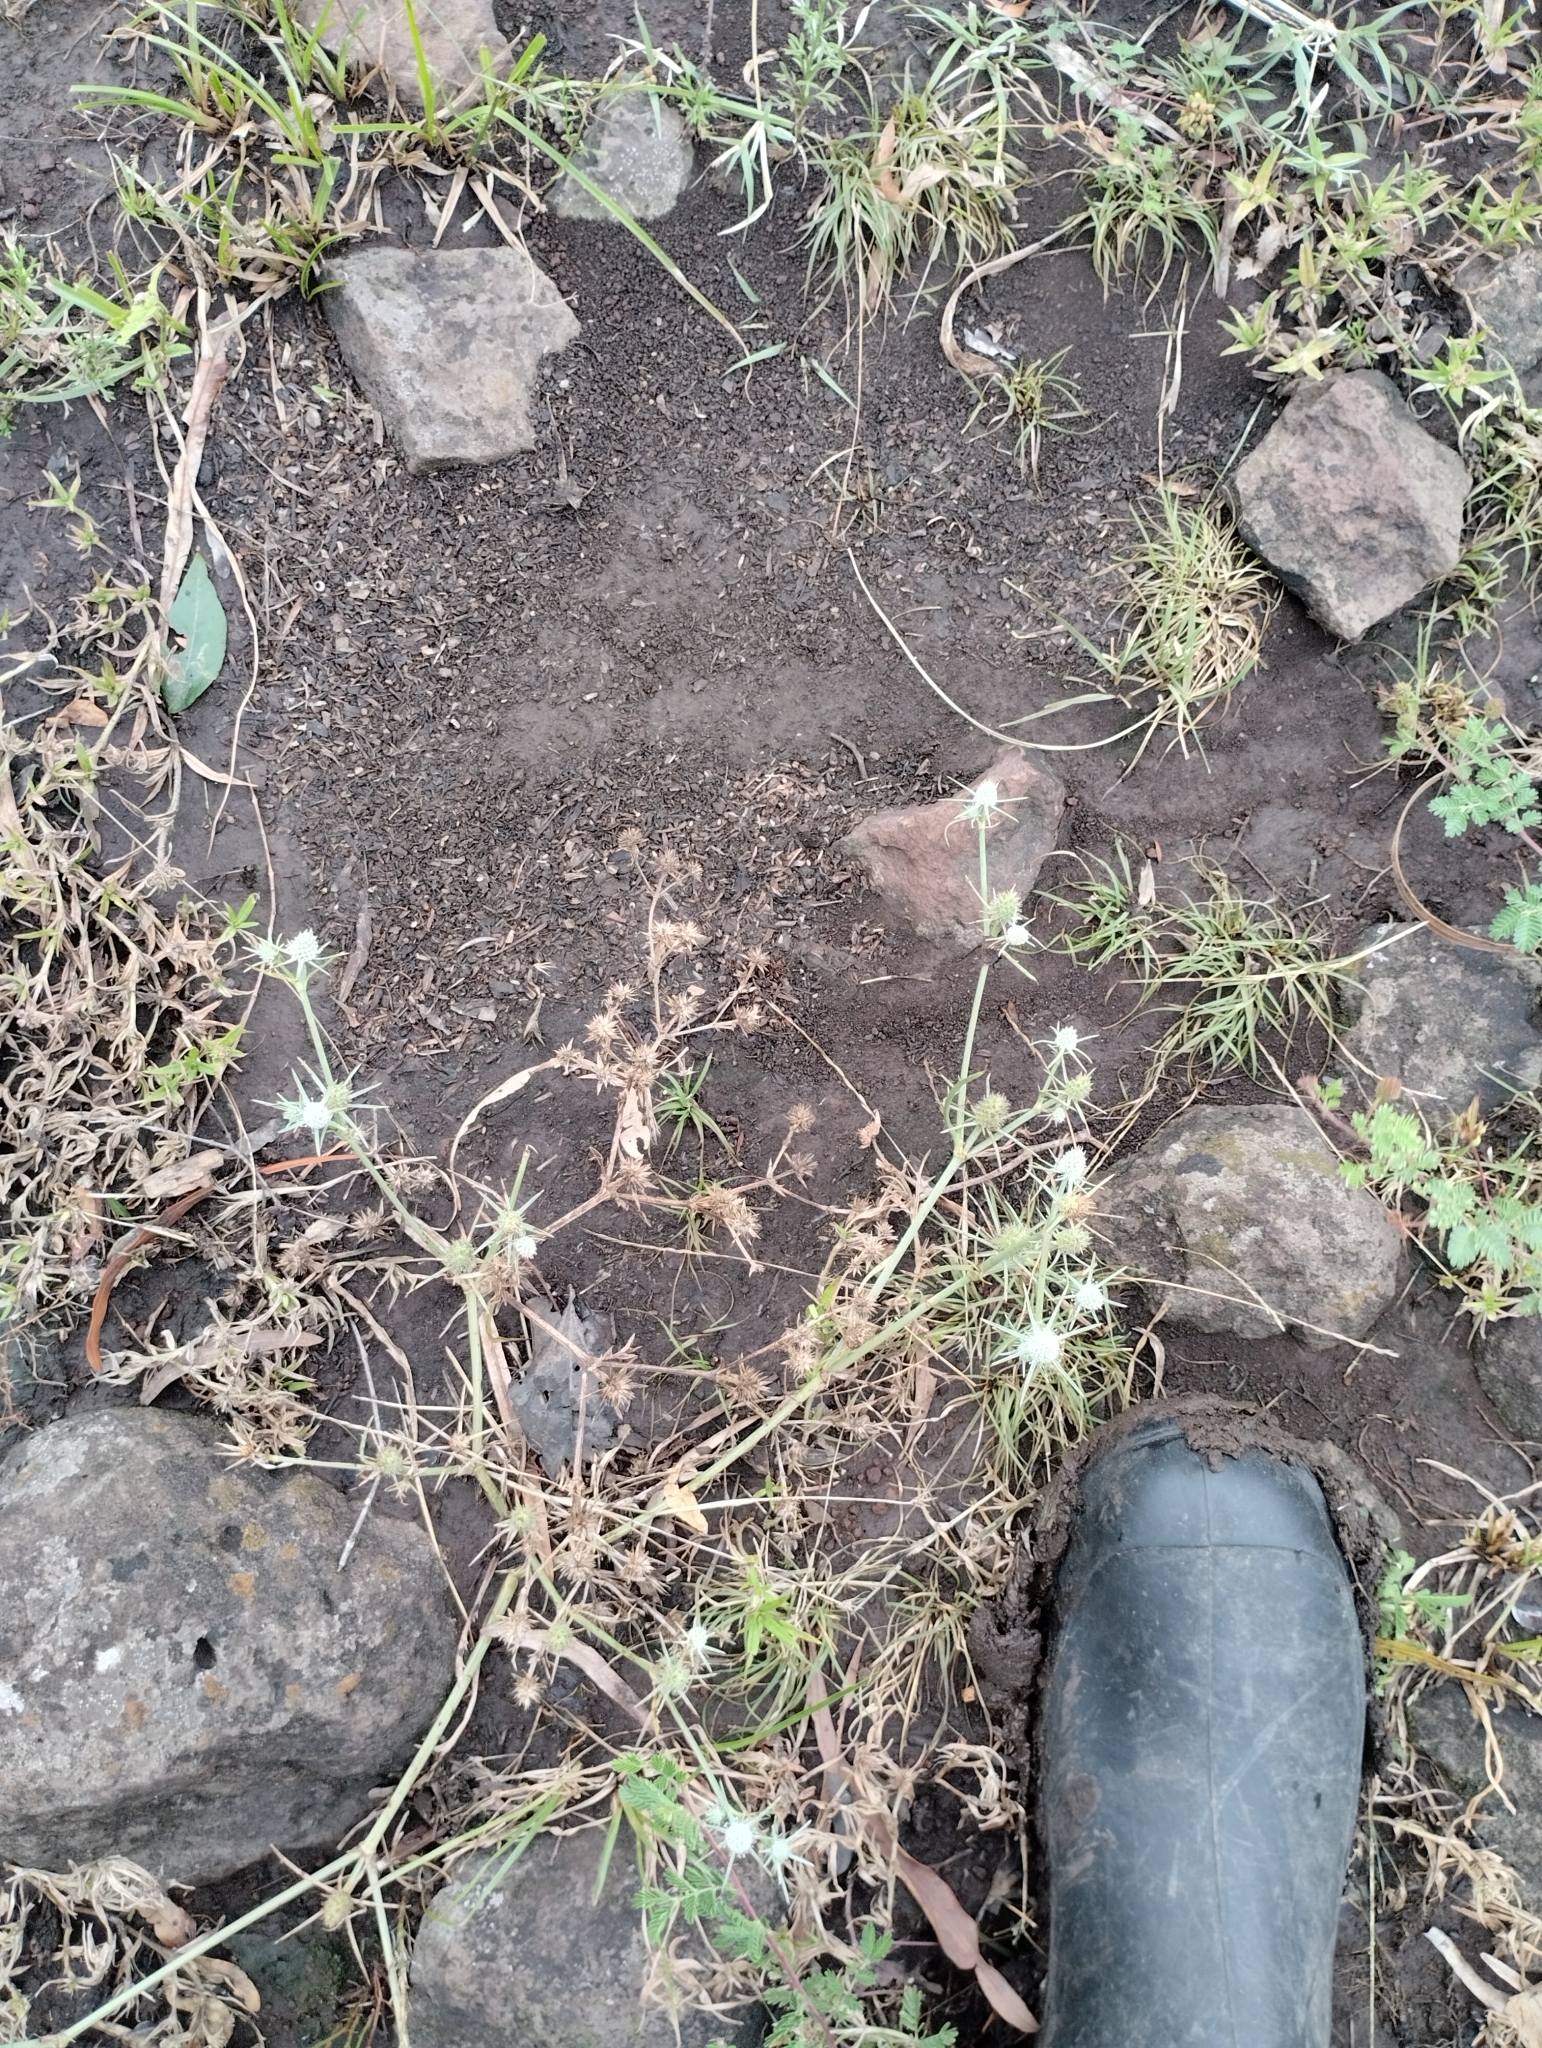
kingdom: Plantae
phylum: Tracheophyta
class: Magnoliopsida
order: Apiales
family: Apiaceae
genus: Eryngium
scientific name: Eryngium echinatum
